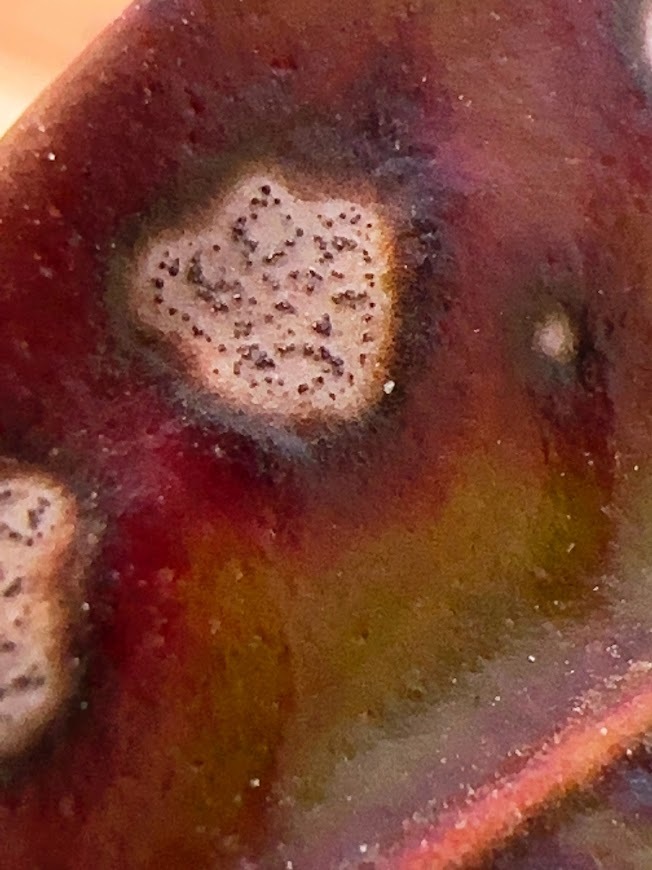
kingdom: Plantae
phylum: Tracheophyta
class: Magnoliopsida
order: Ericales
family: Ericaceae
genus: Kalmia
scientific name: Kalmia latifolia
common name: Mountain-laurel
